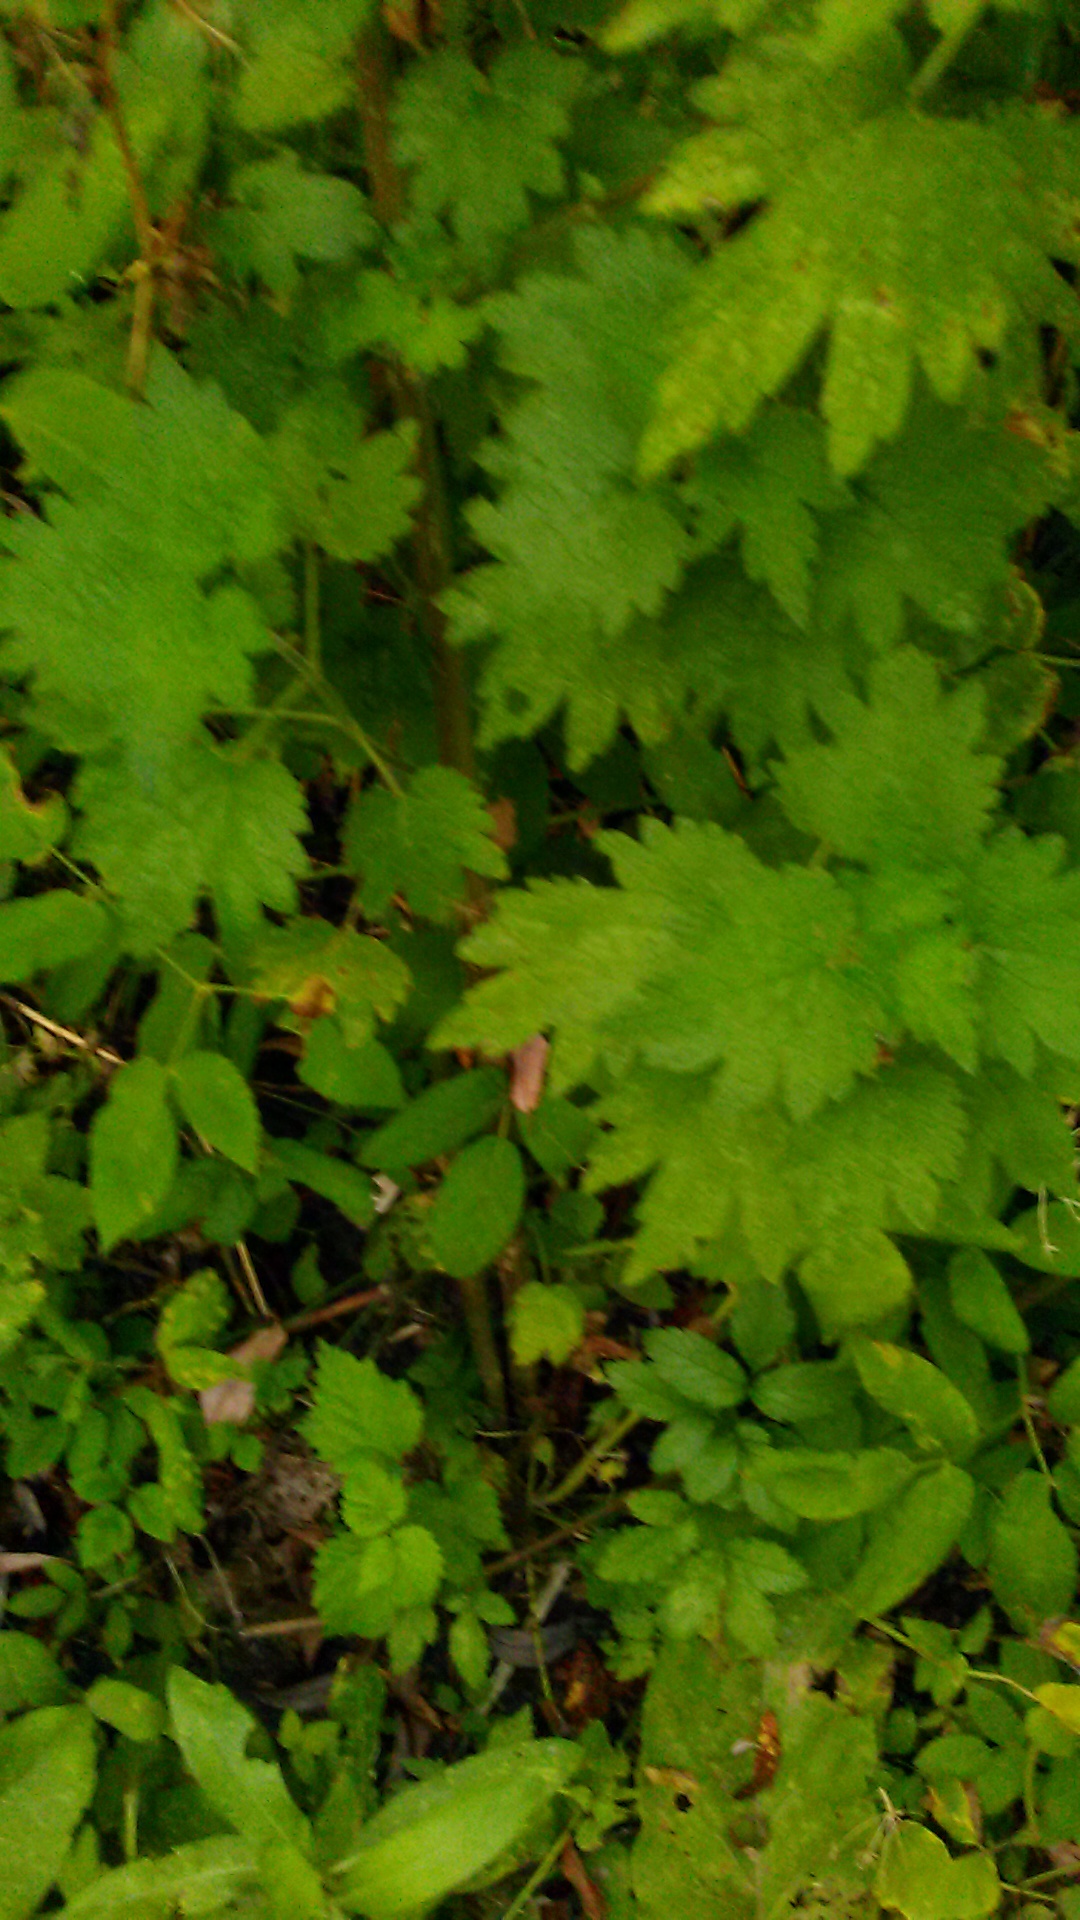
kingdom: Plantae
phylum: Tracheophyta
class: Magnoliopsida
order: Lamiales
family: Lamiaceae
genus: Leonurus
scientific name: Leonurus quinquelobatus
